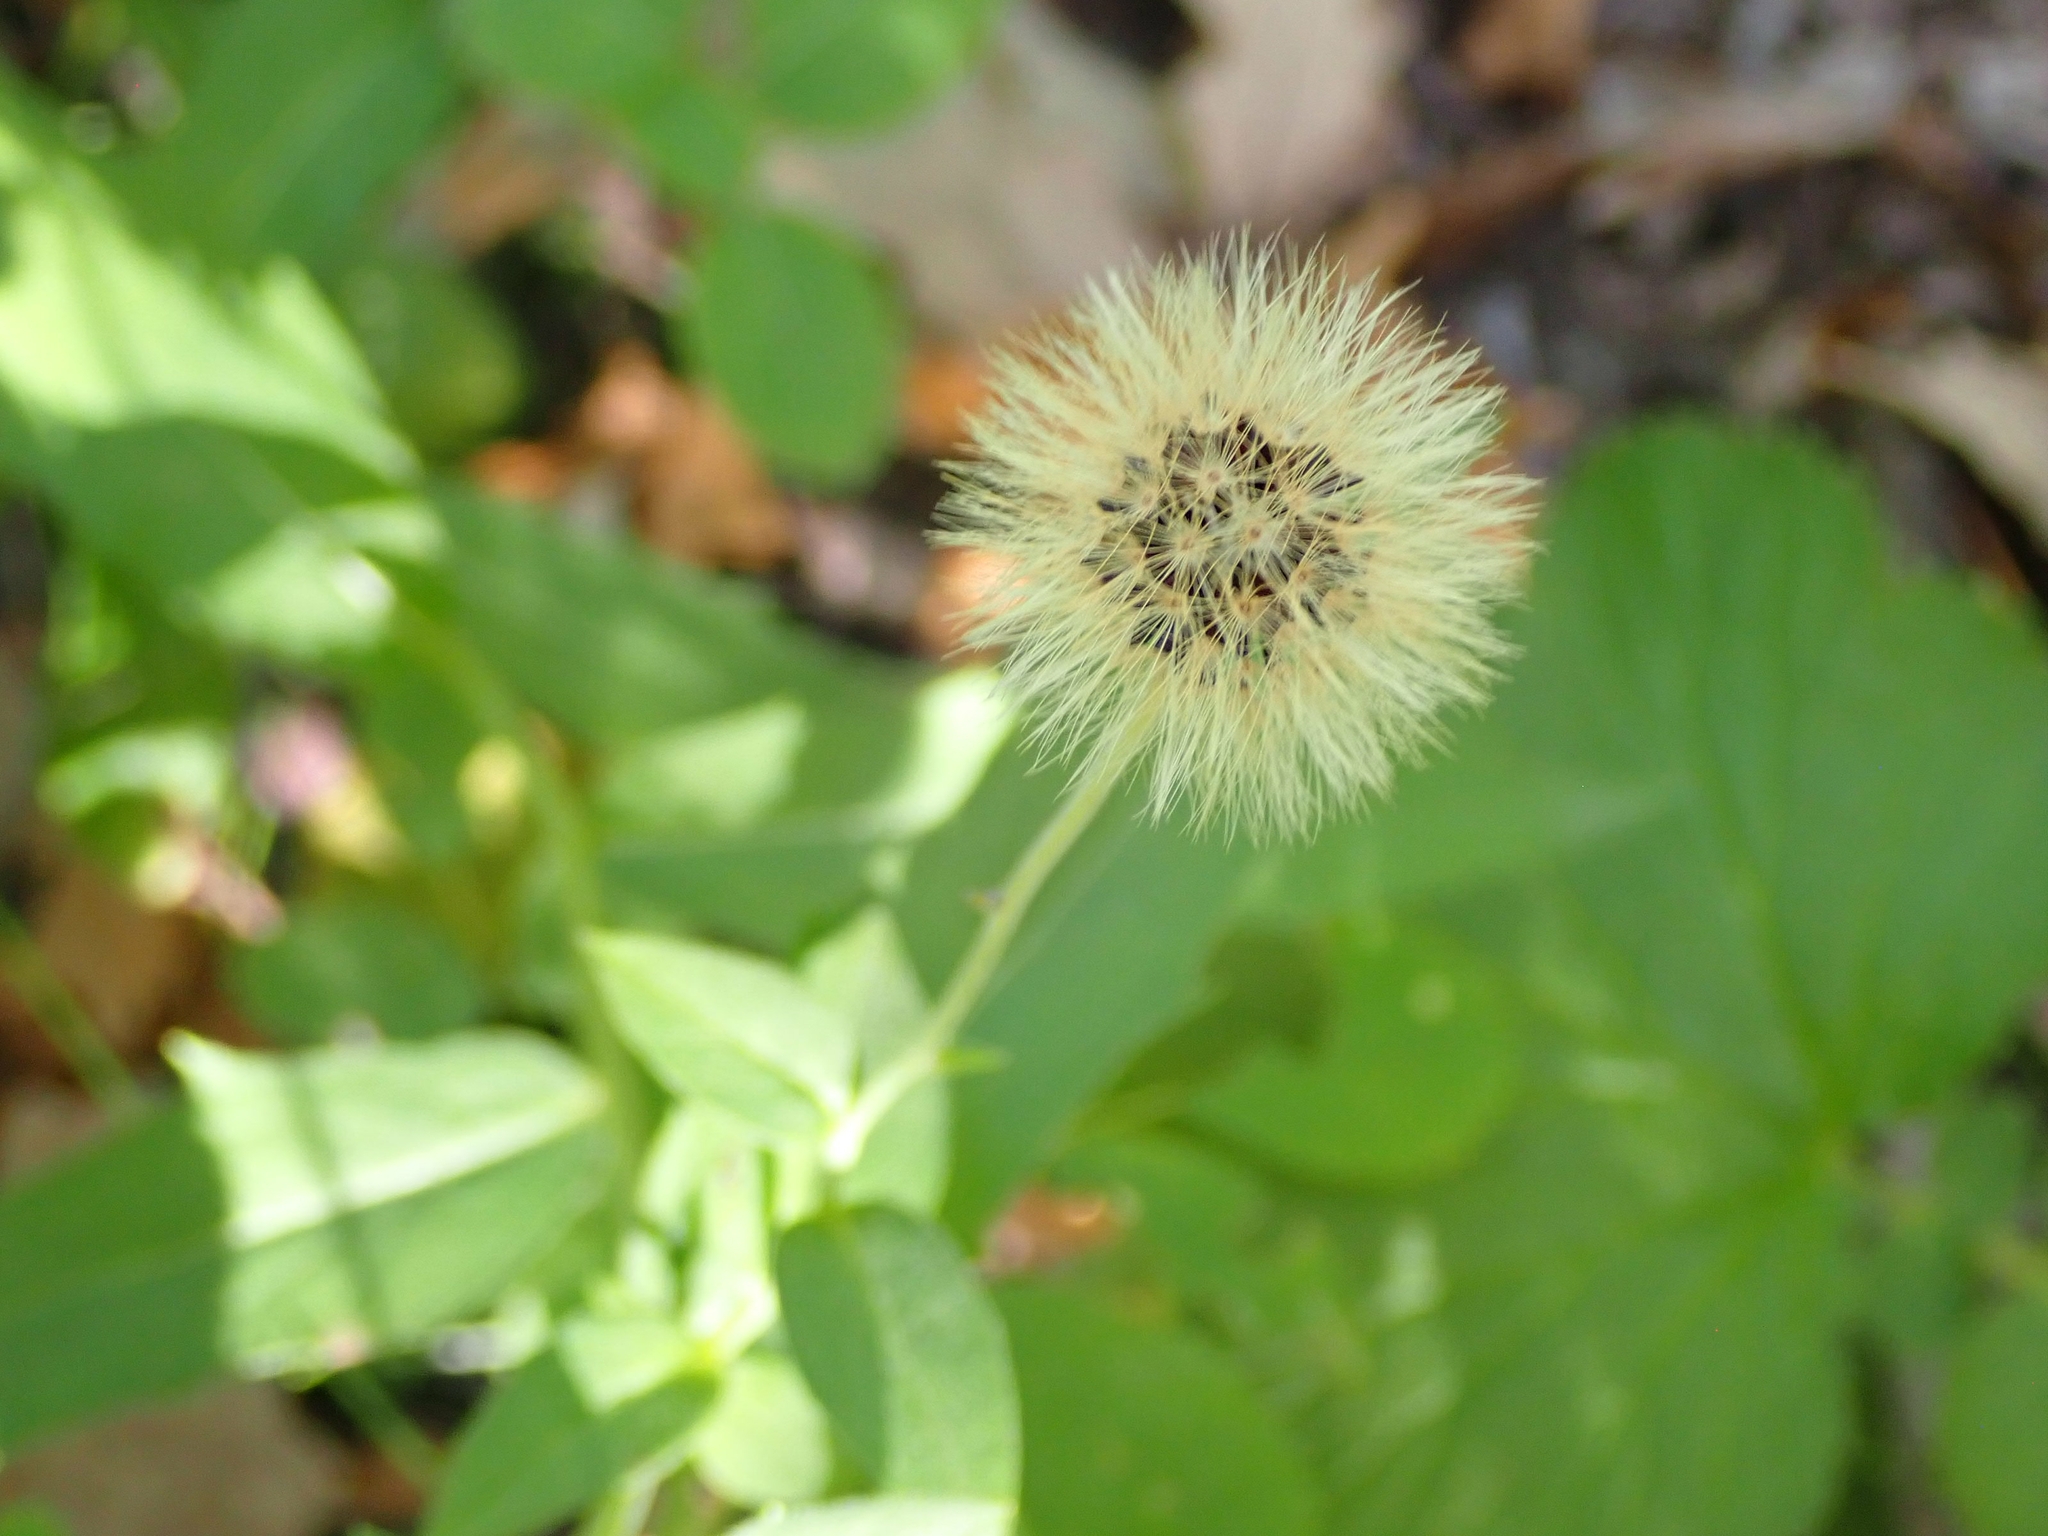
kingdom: Plantae
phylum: Tracheophyta
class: Magnoliopsida
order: Asterales
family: Asteraceae
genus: Hieracium
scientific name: Hieracium umbellatum
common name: Northern hawkweed
